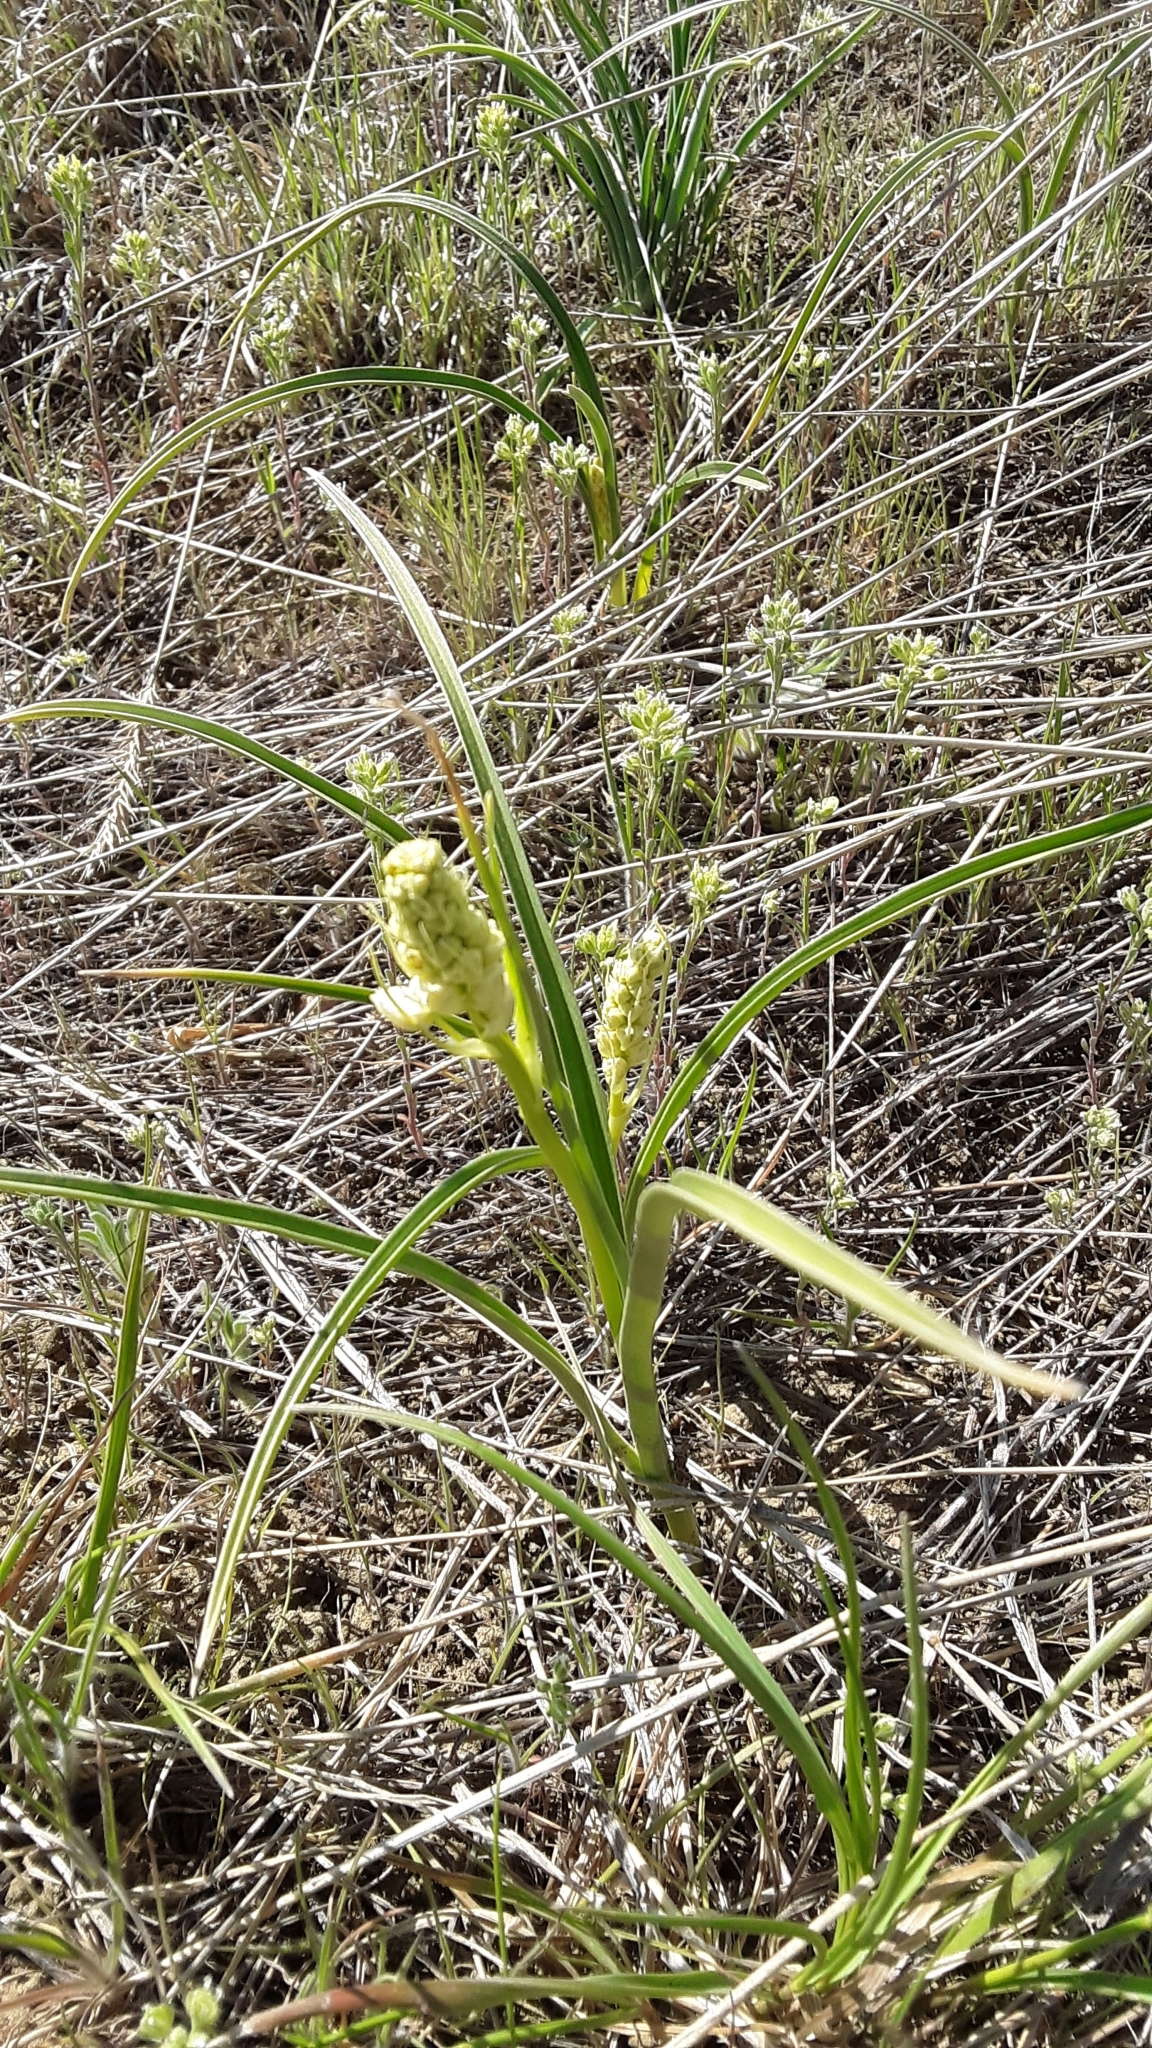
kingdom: Plantae
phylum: Tracheophyta
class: Liliopsida
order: Liliales
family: Melanthiaceae
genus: Toxicoscordion
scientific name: Toxicoscordion venenosum
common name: Meadow death camas
